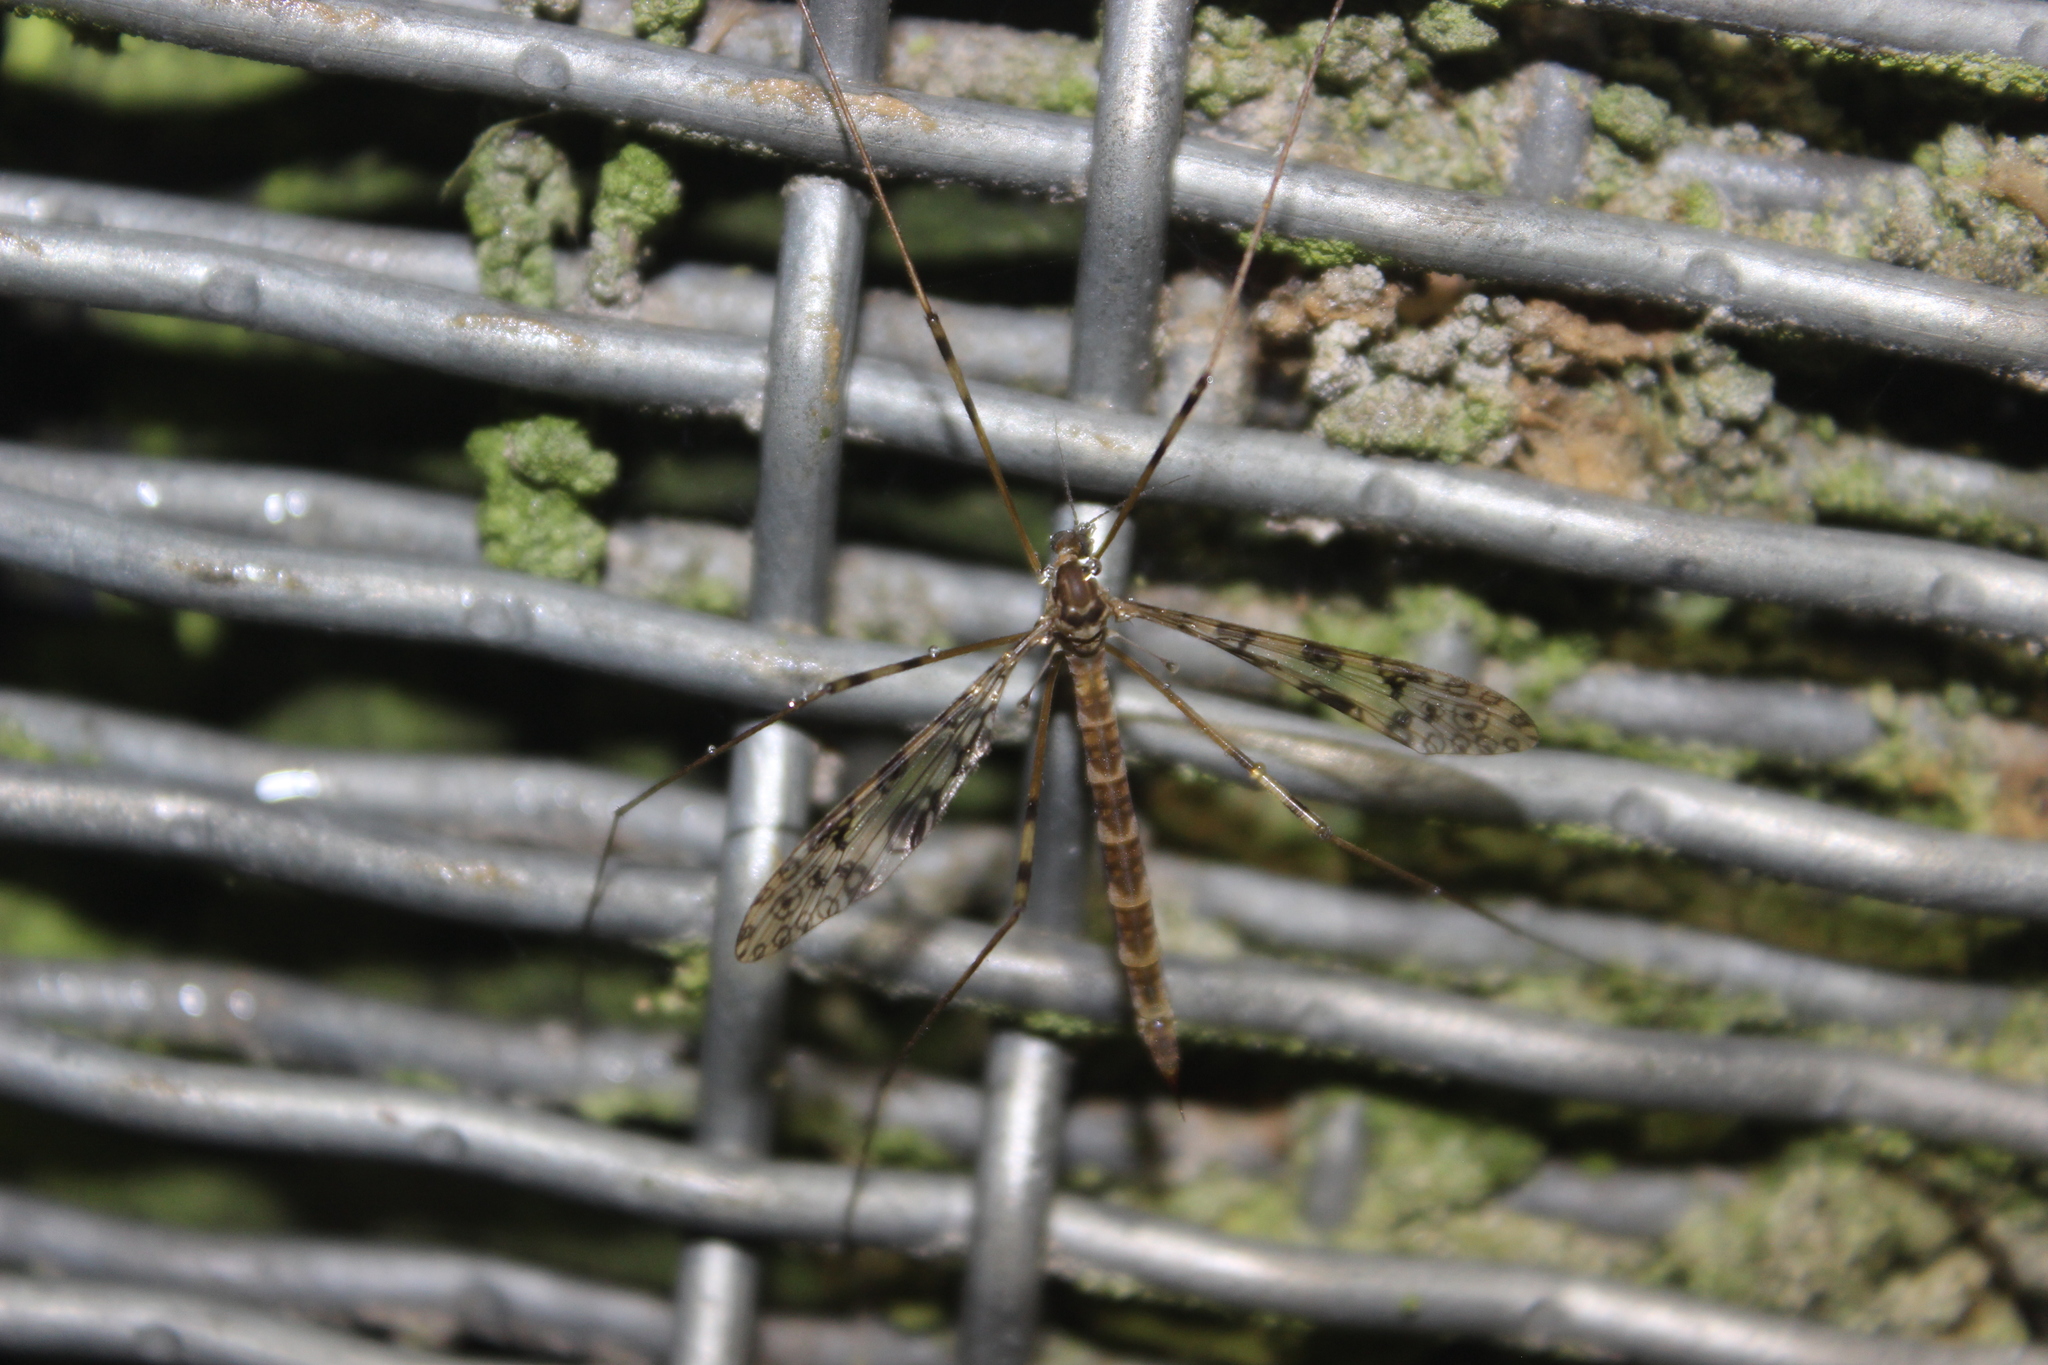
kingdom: Animalia
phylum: Arthropoda
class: Insecta
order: Diptera
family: Limoniidae
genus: Austrolimnophila
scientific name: Austrolimnophila argus
